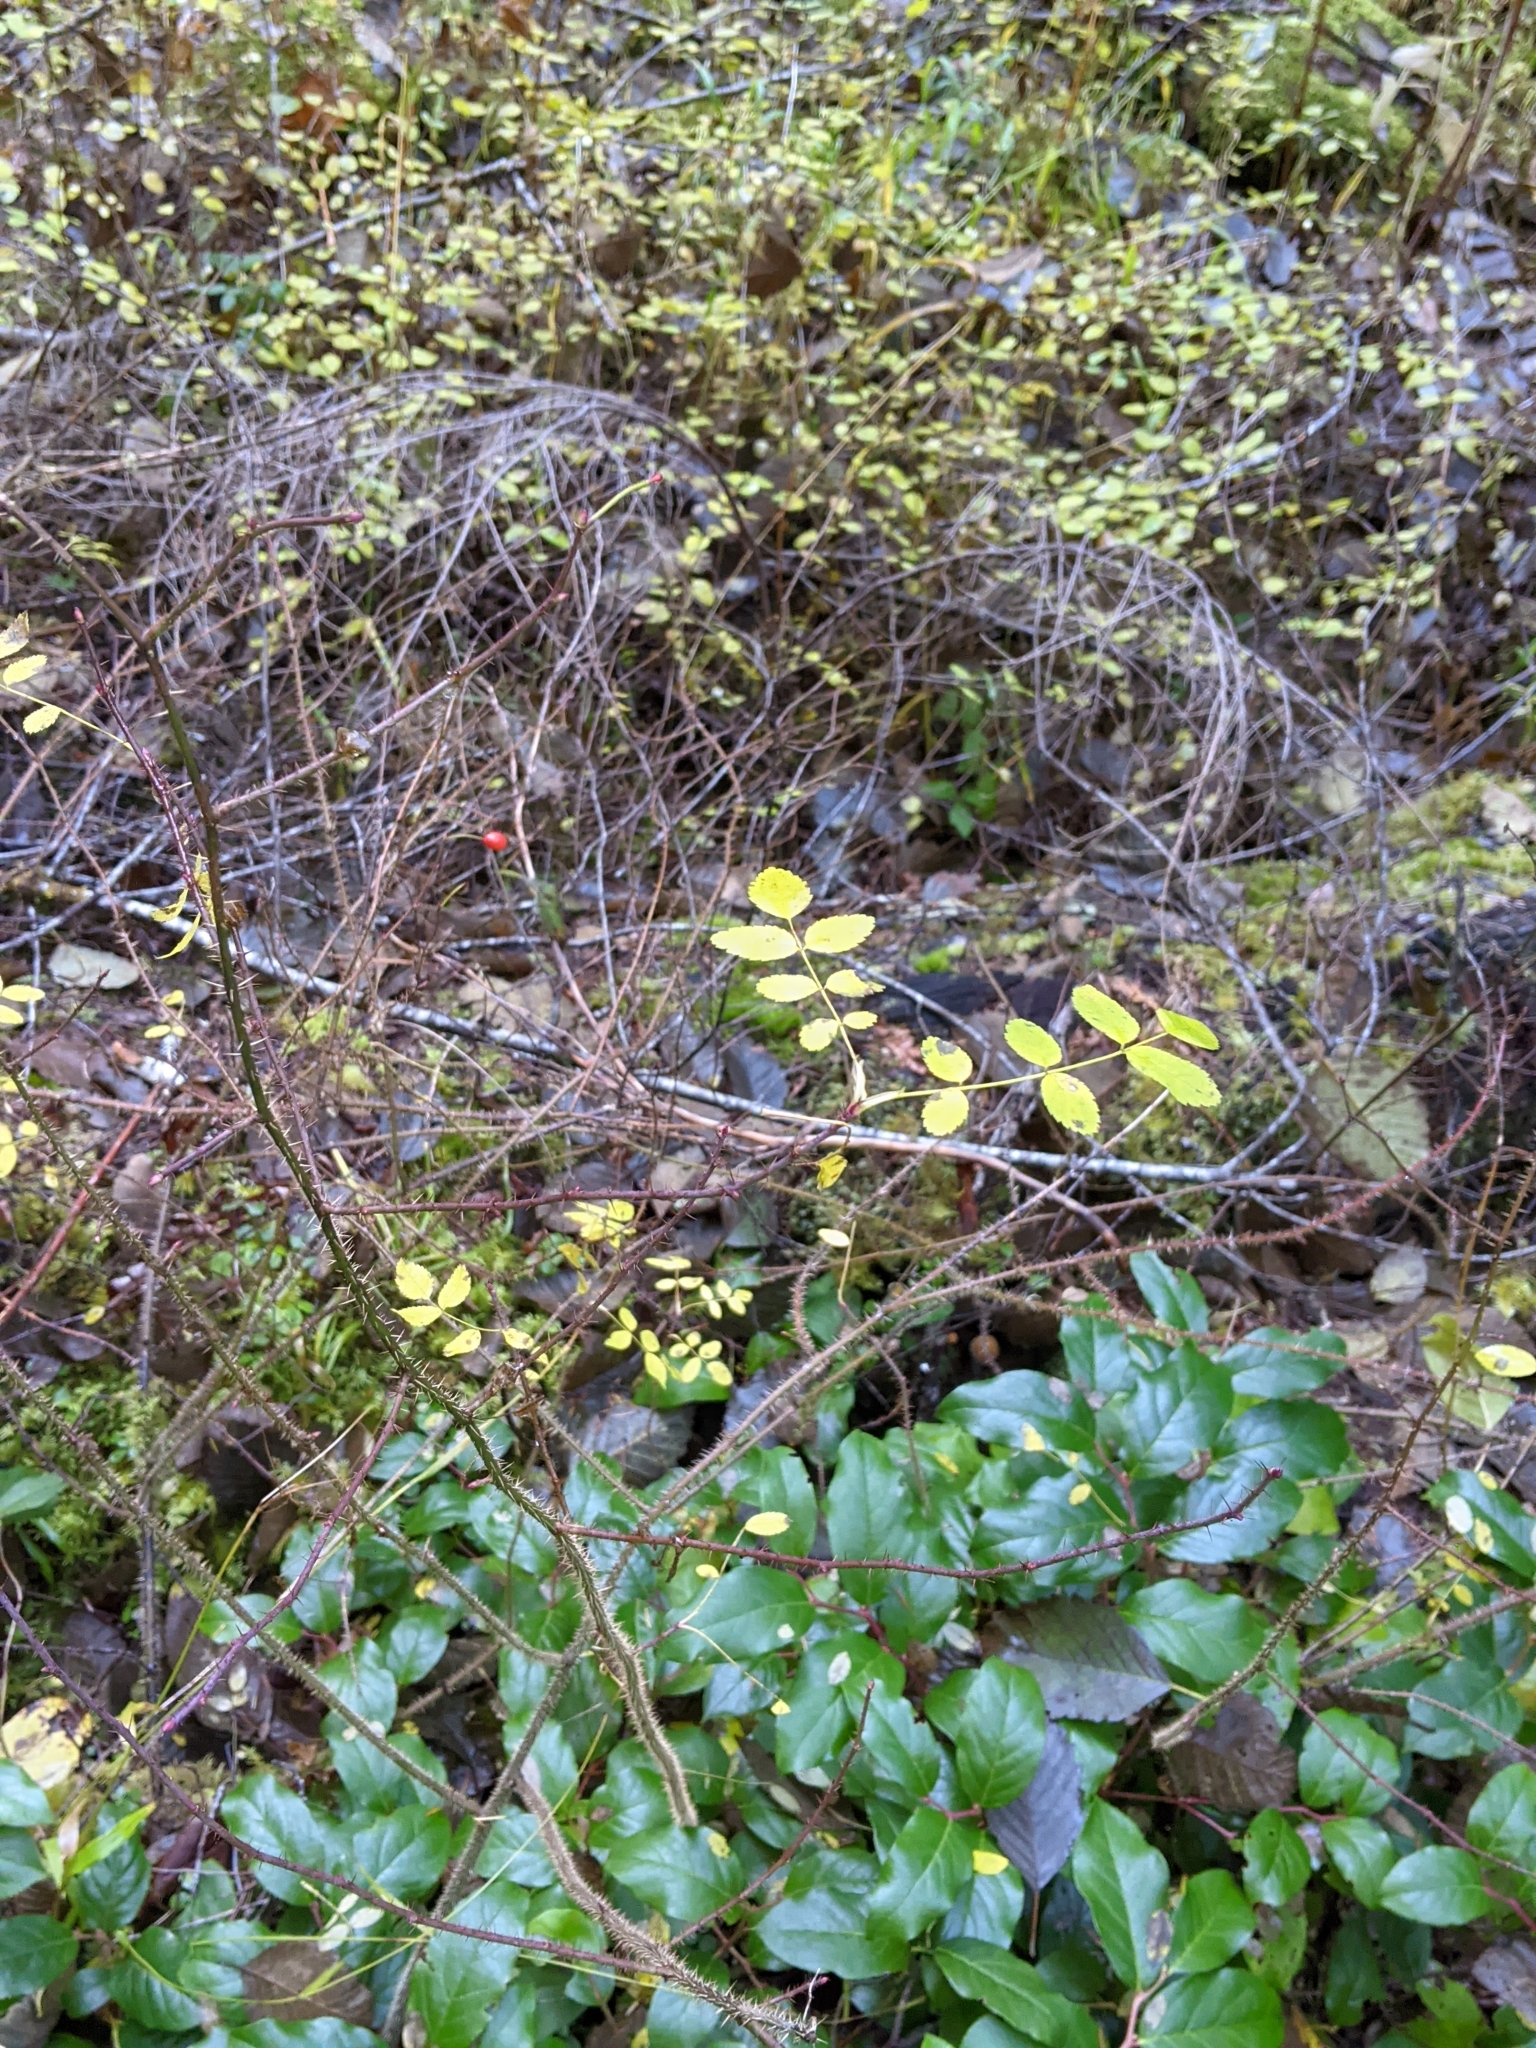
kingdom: Plantae
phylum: Tracheophyta
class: Magnoliopsida
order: Rosales
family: Rosaceae
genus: Rosa
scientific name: Rosa gymnocarpa
